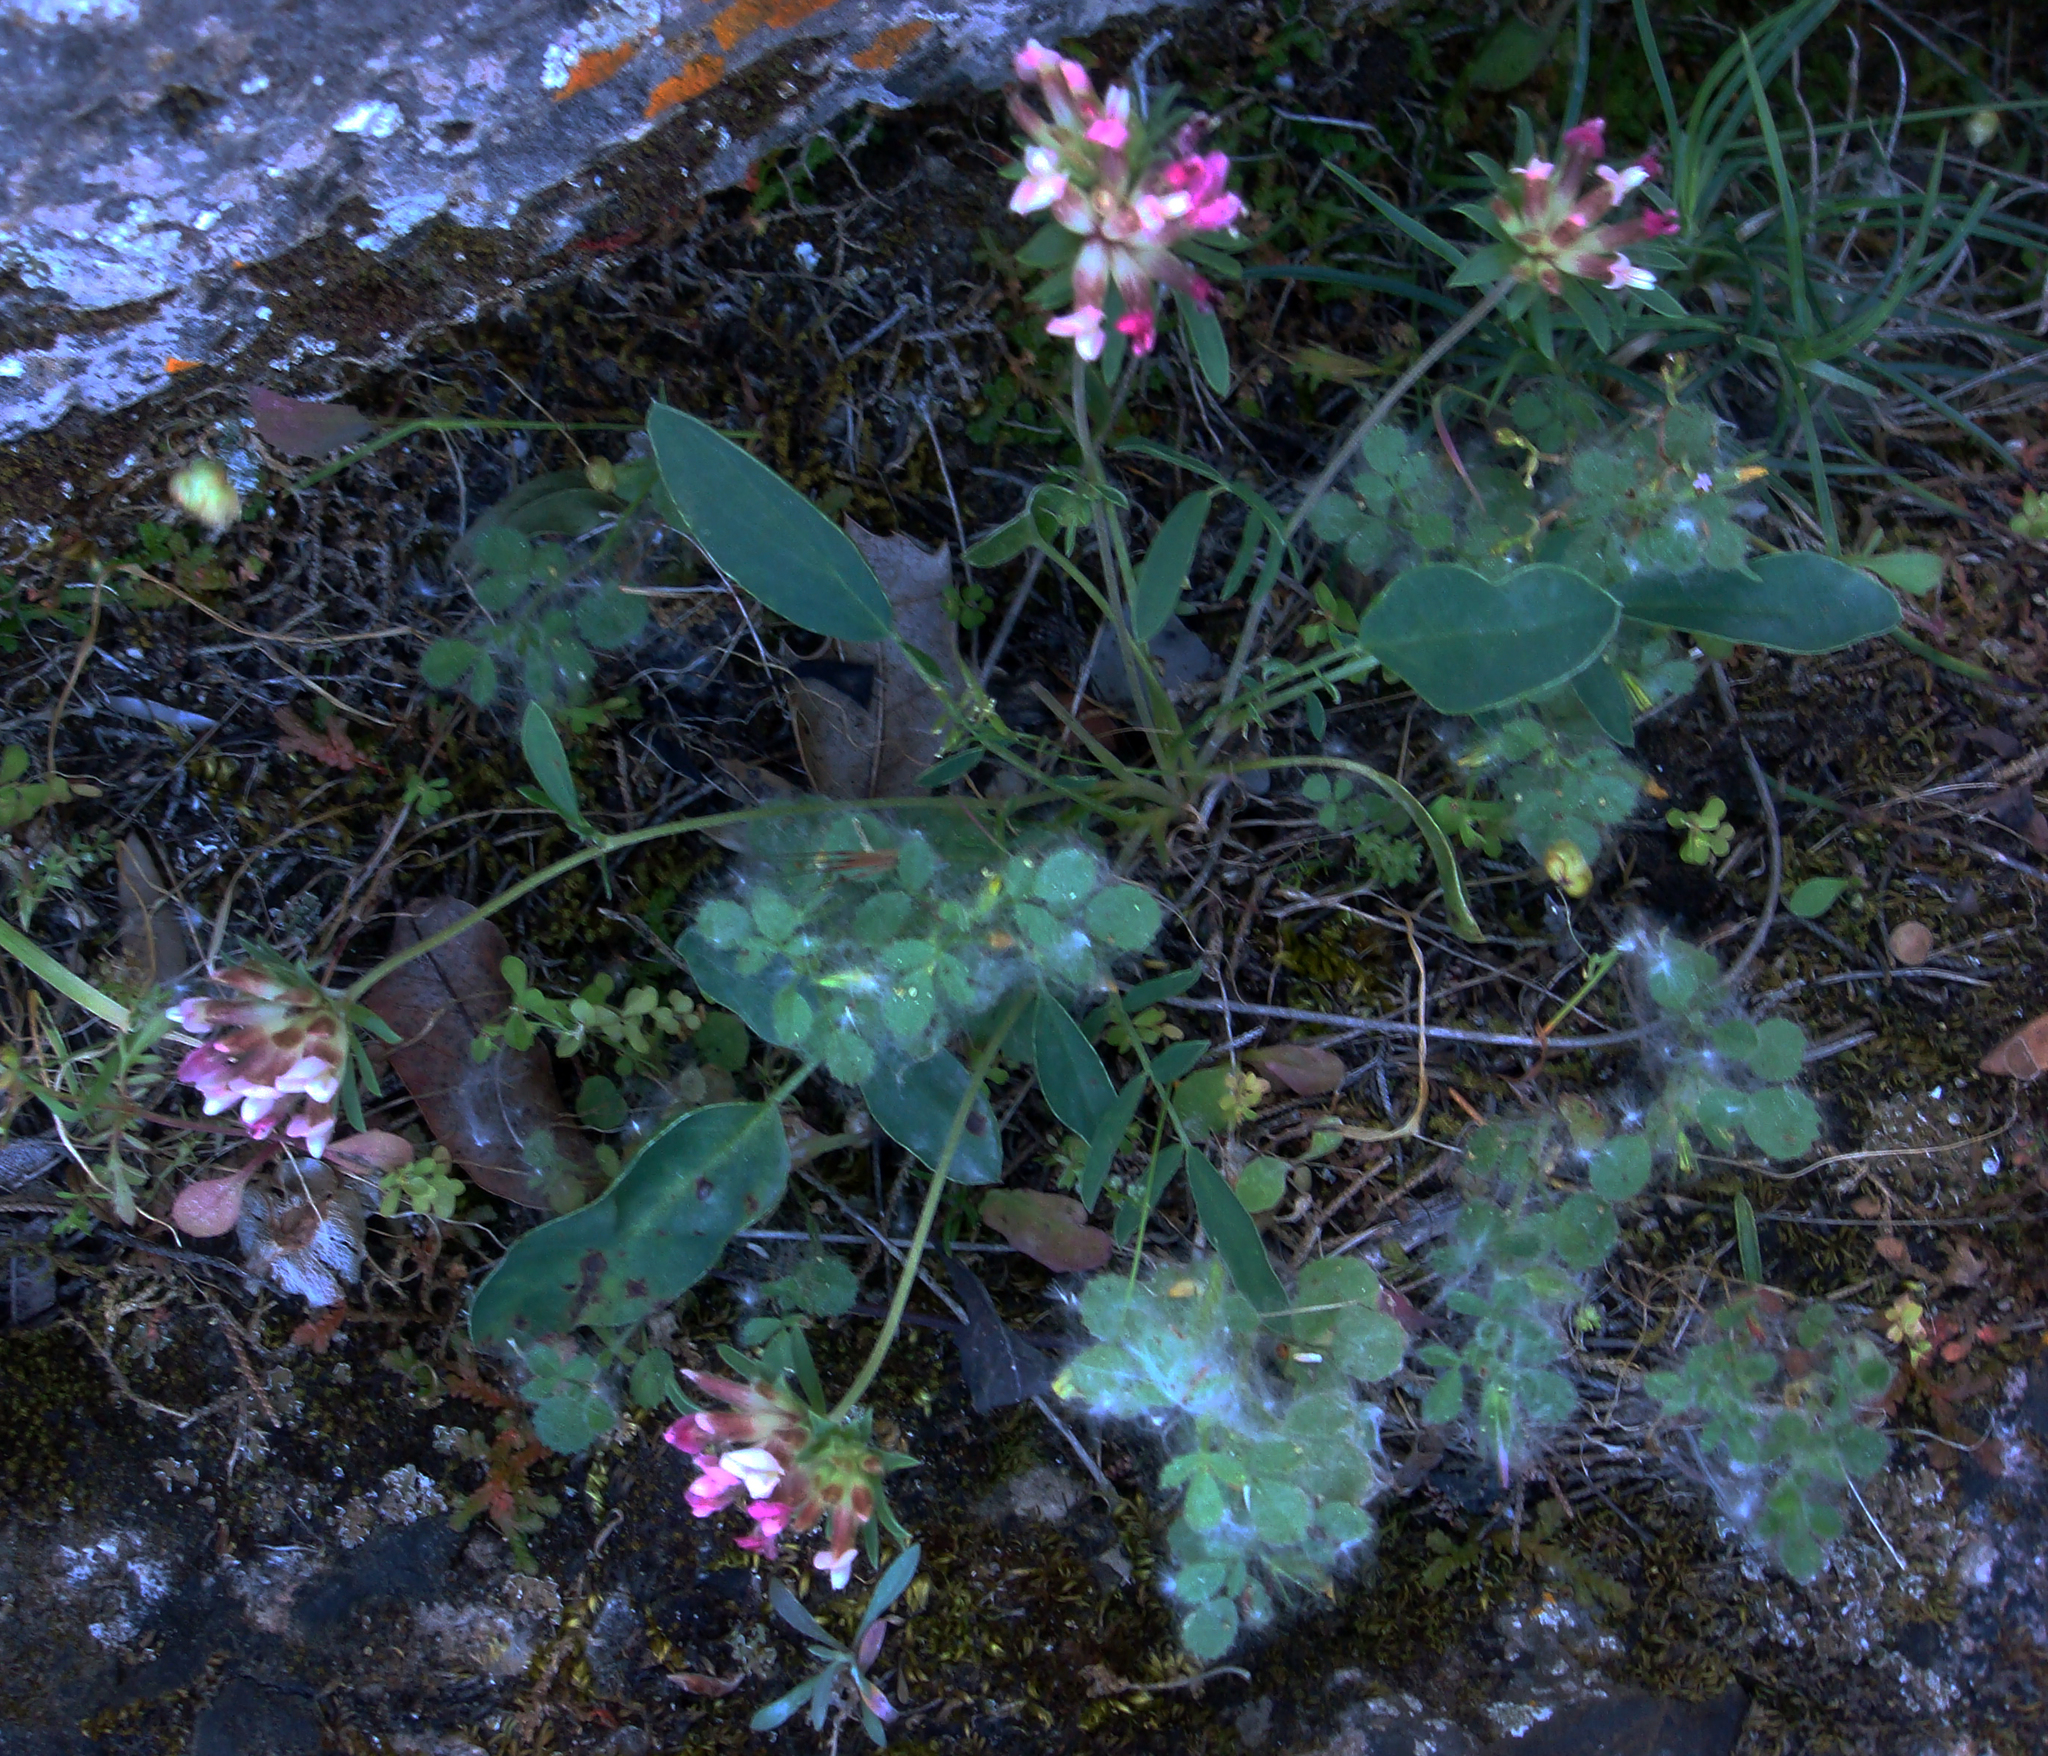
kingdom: Plantae
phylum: Tracheophyta
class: Magnoliopsida
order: Fabales
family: Fabaceae
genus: Anthyllis
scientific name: Anthyllis vulneraria
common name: Kidney vetch
